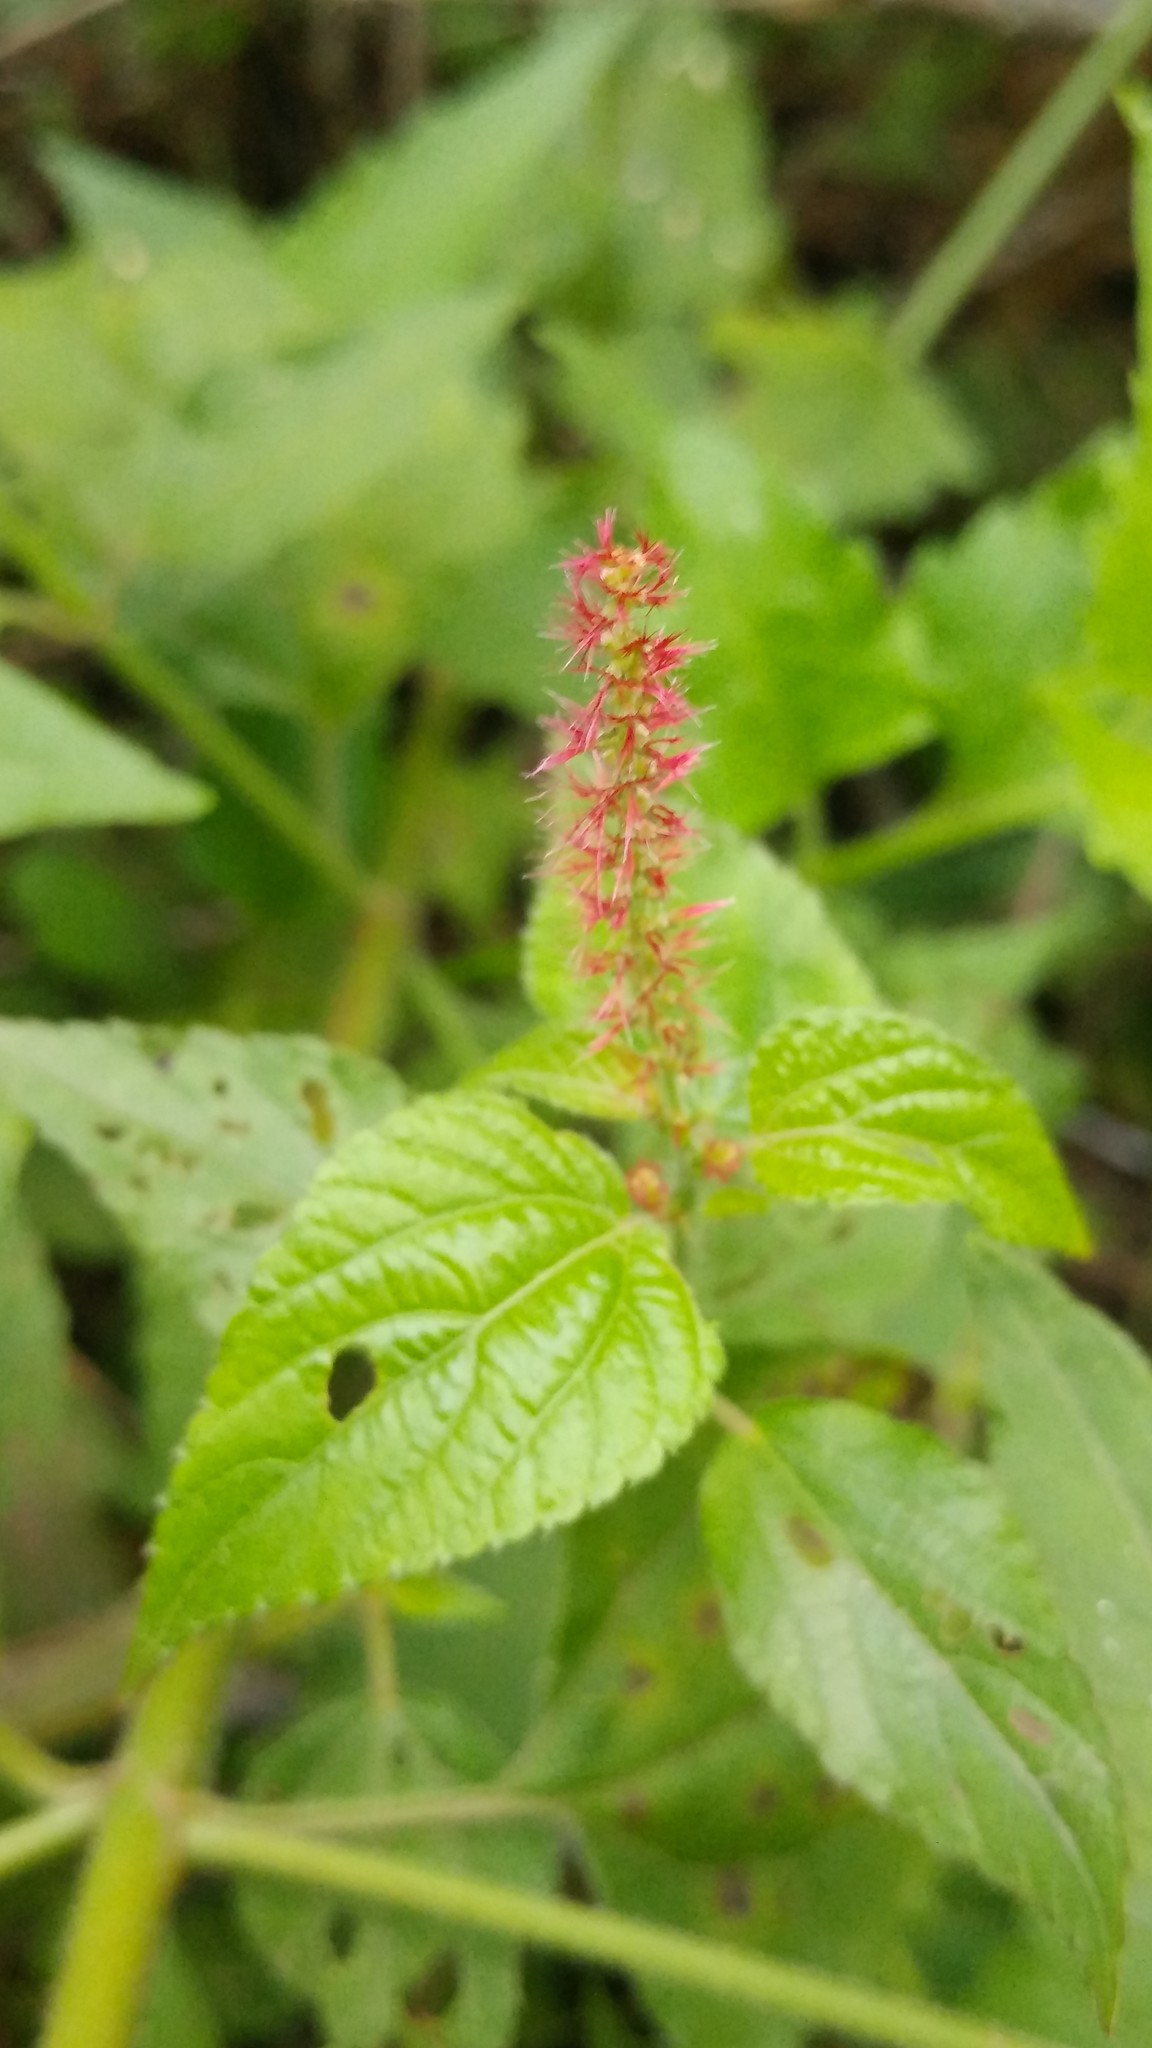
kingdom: Plantae
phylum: Tracheophyta
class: Magnoliopsida
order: Malpighiales
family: Euphorbiaceae
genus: Acalypha
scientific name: Acalypha phleoides
